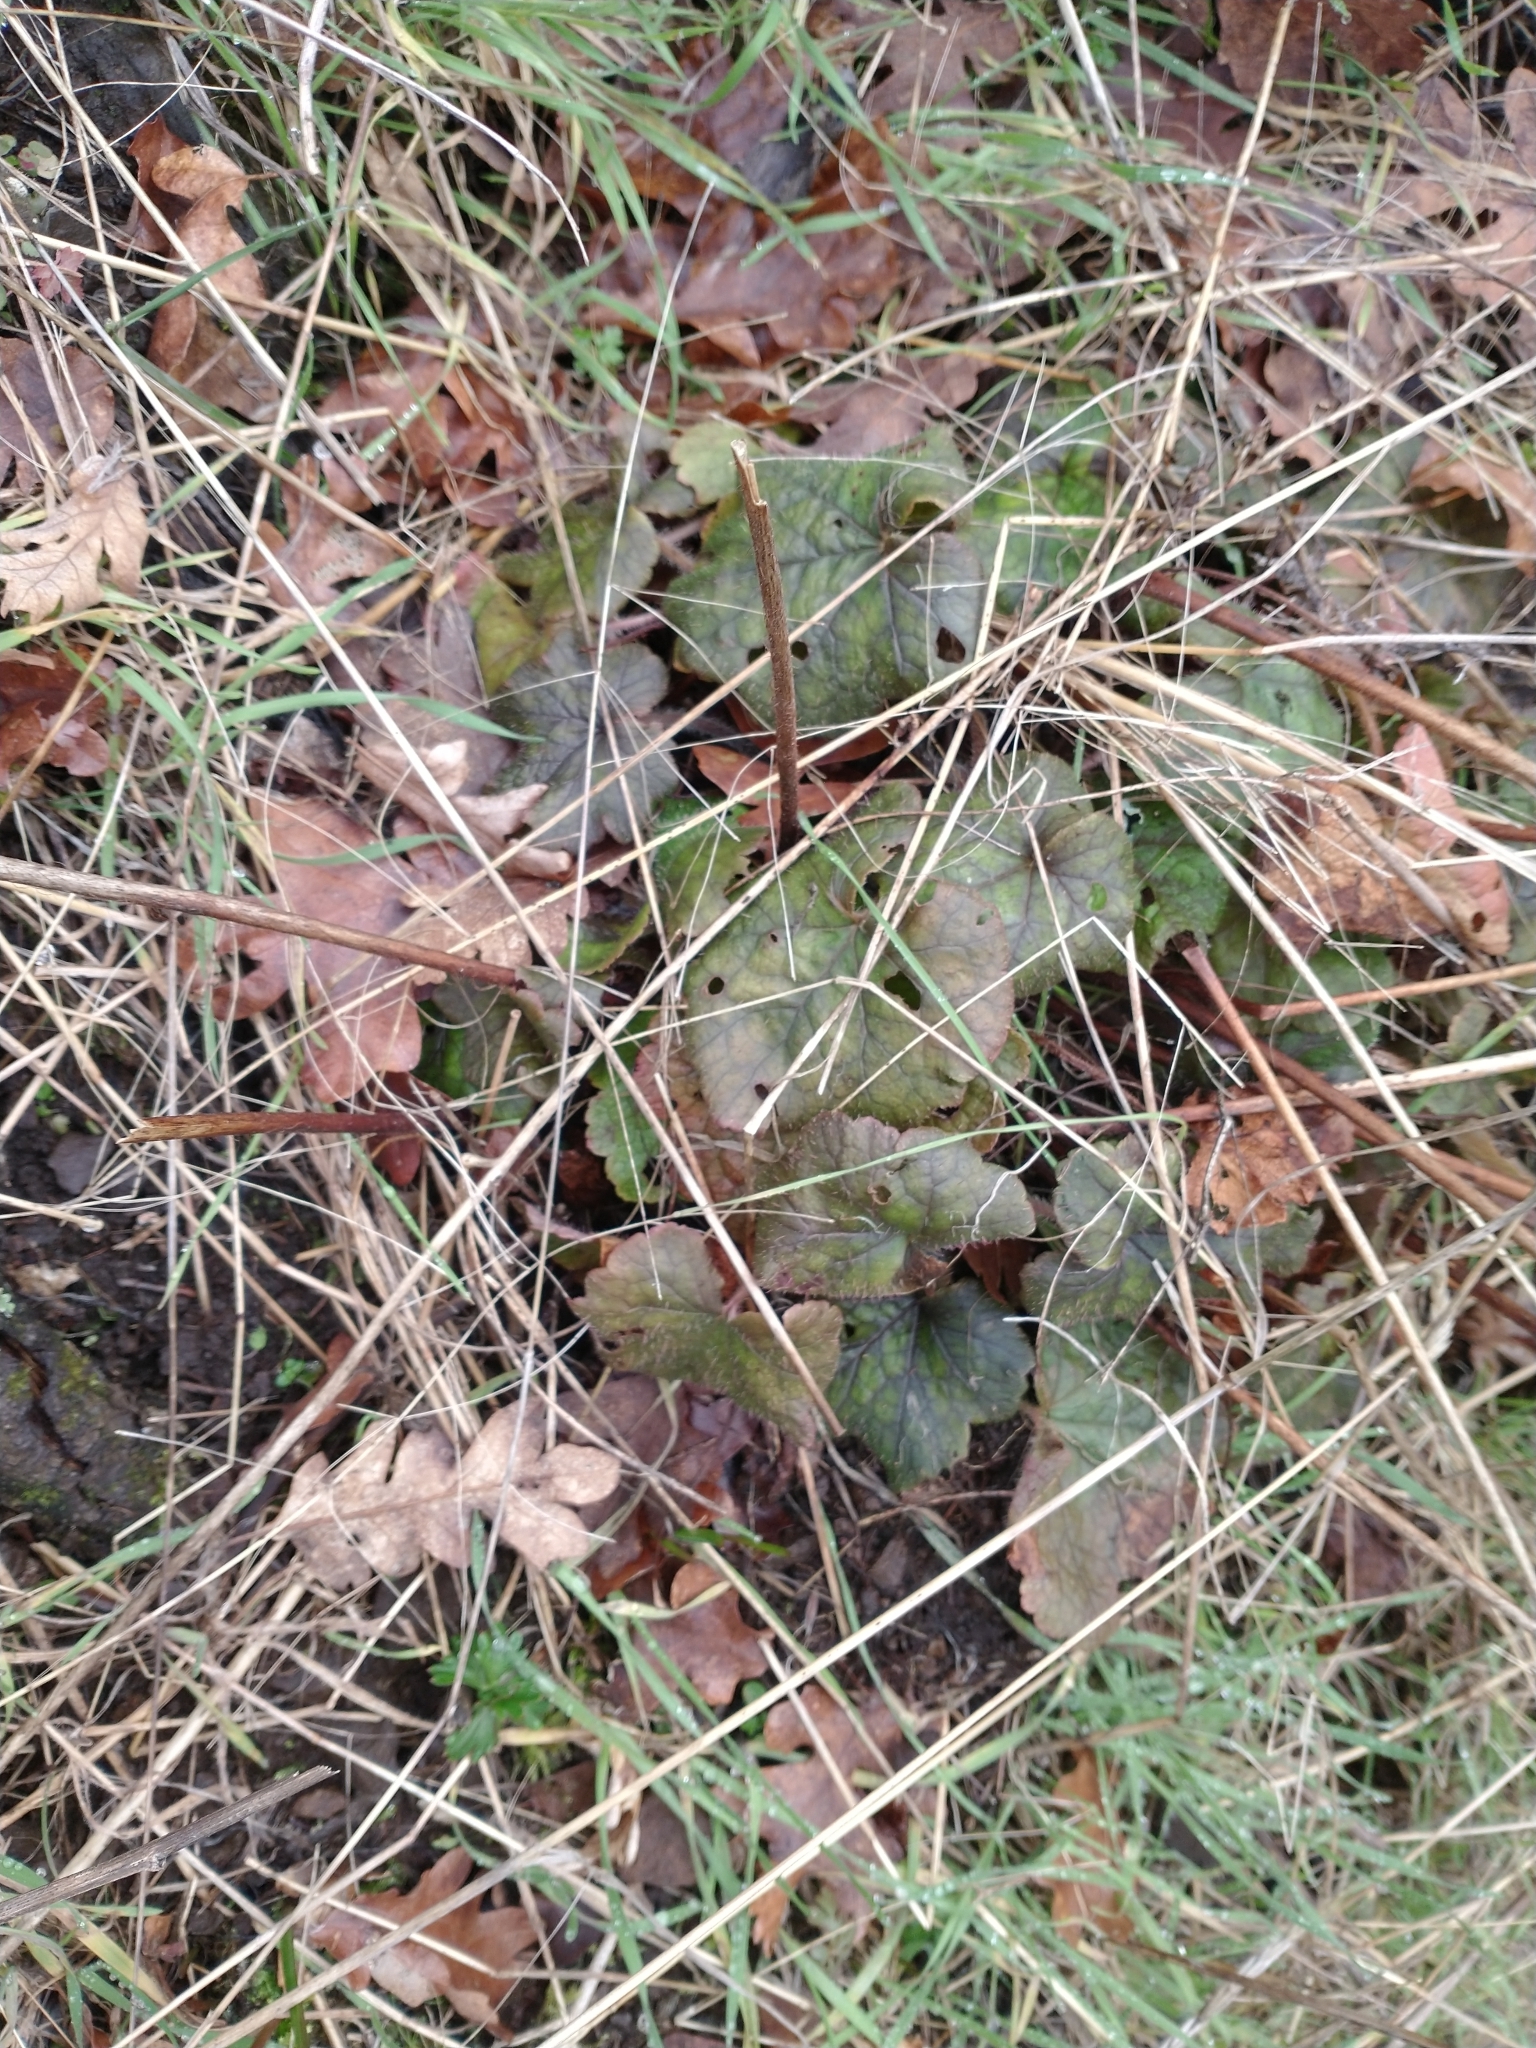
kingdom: Plantae
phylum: Tracheophyta
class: Magnoliopsida
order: Saxifragales
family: Saxifragaceae
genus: Tellima
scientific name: Tellima grandiflora
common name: Fringecups
